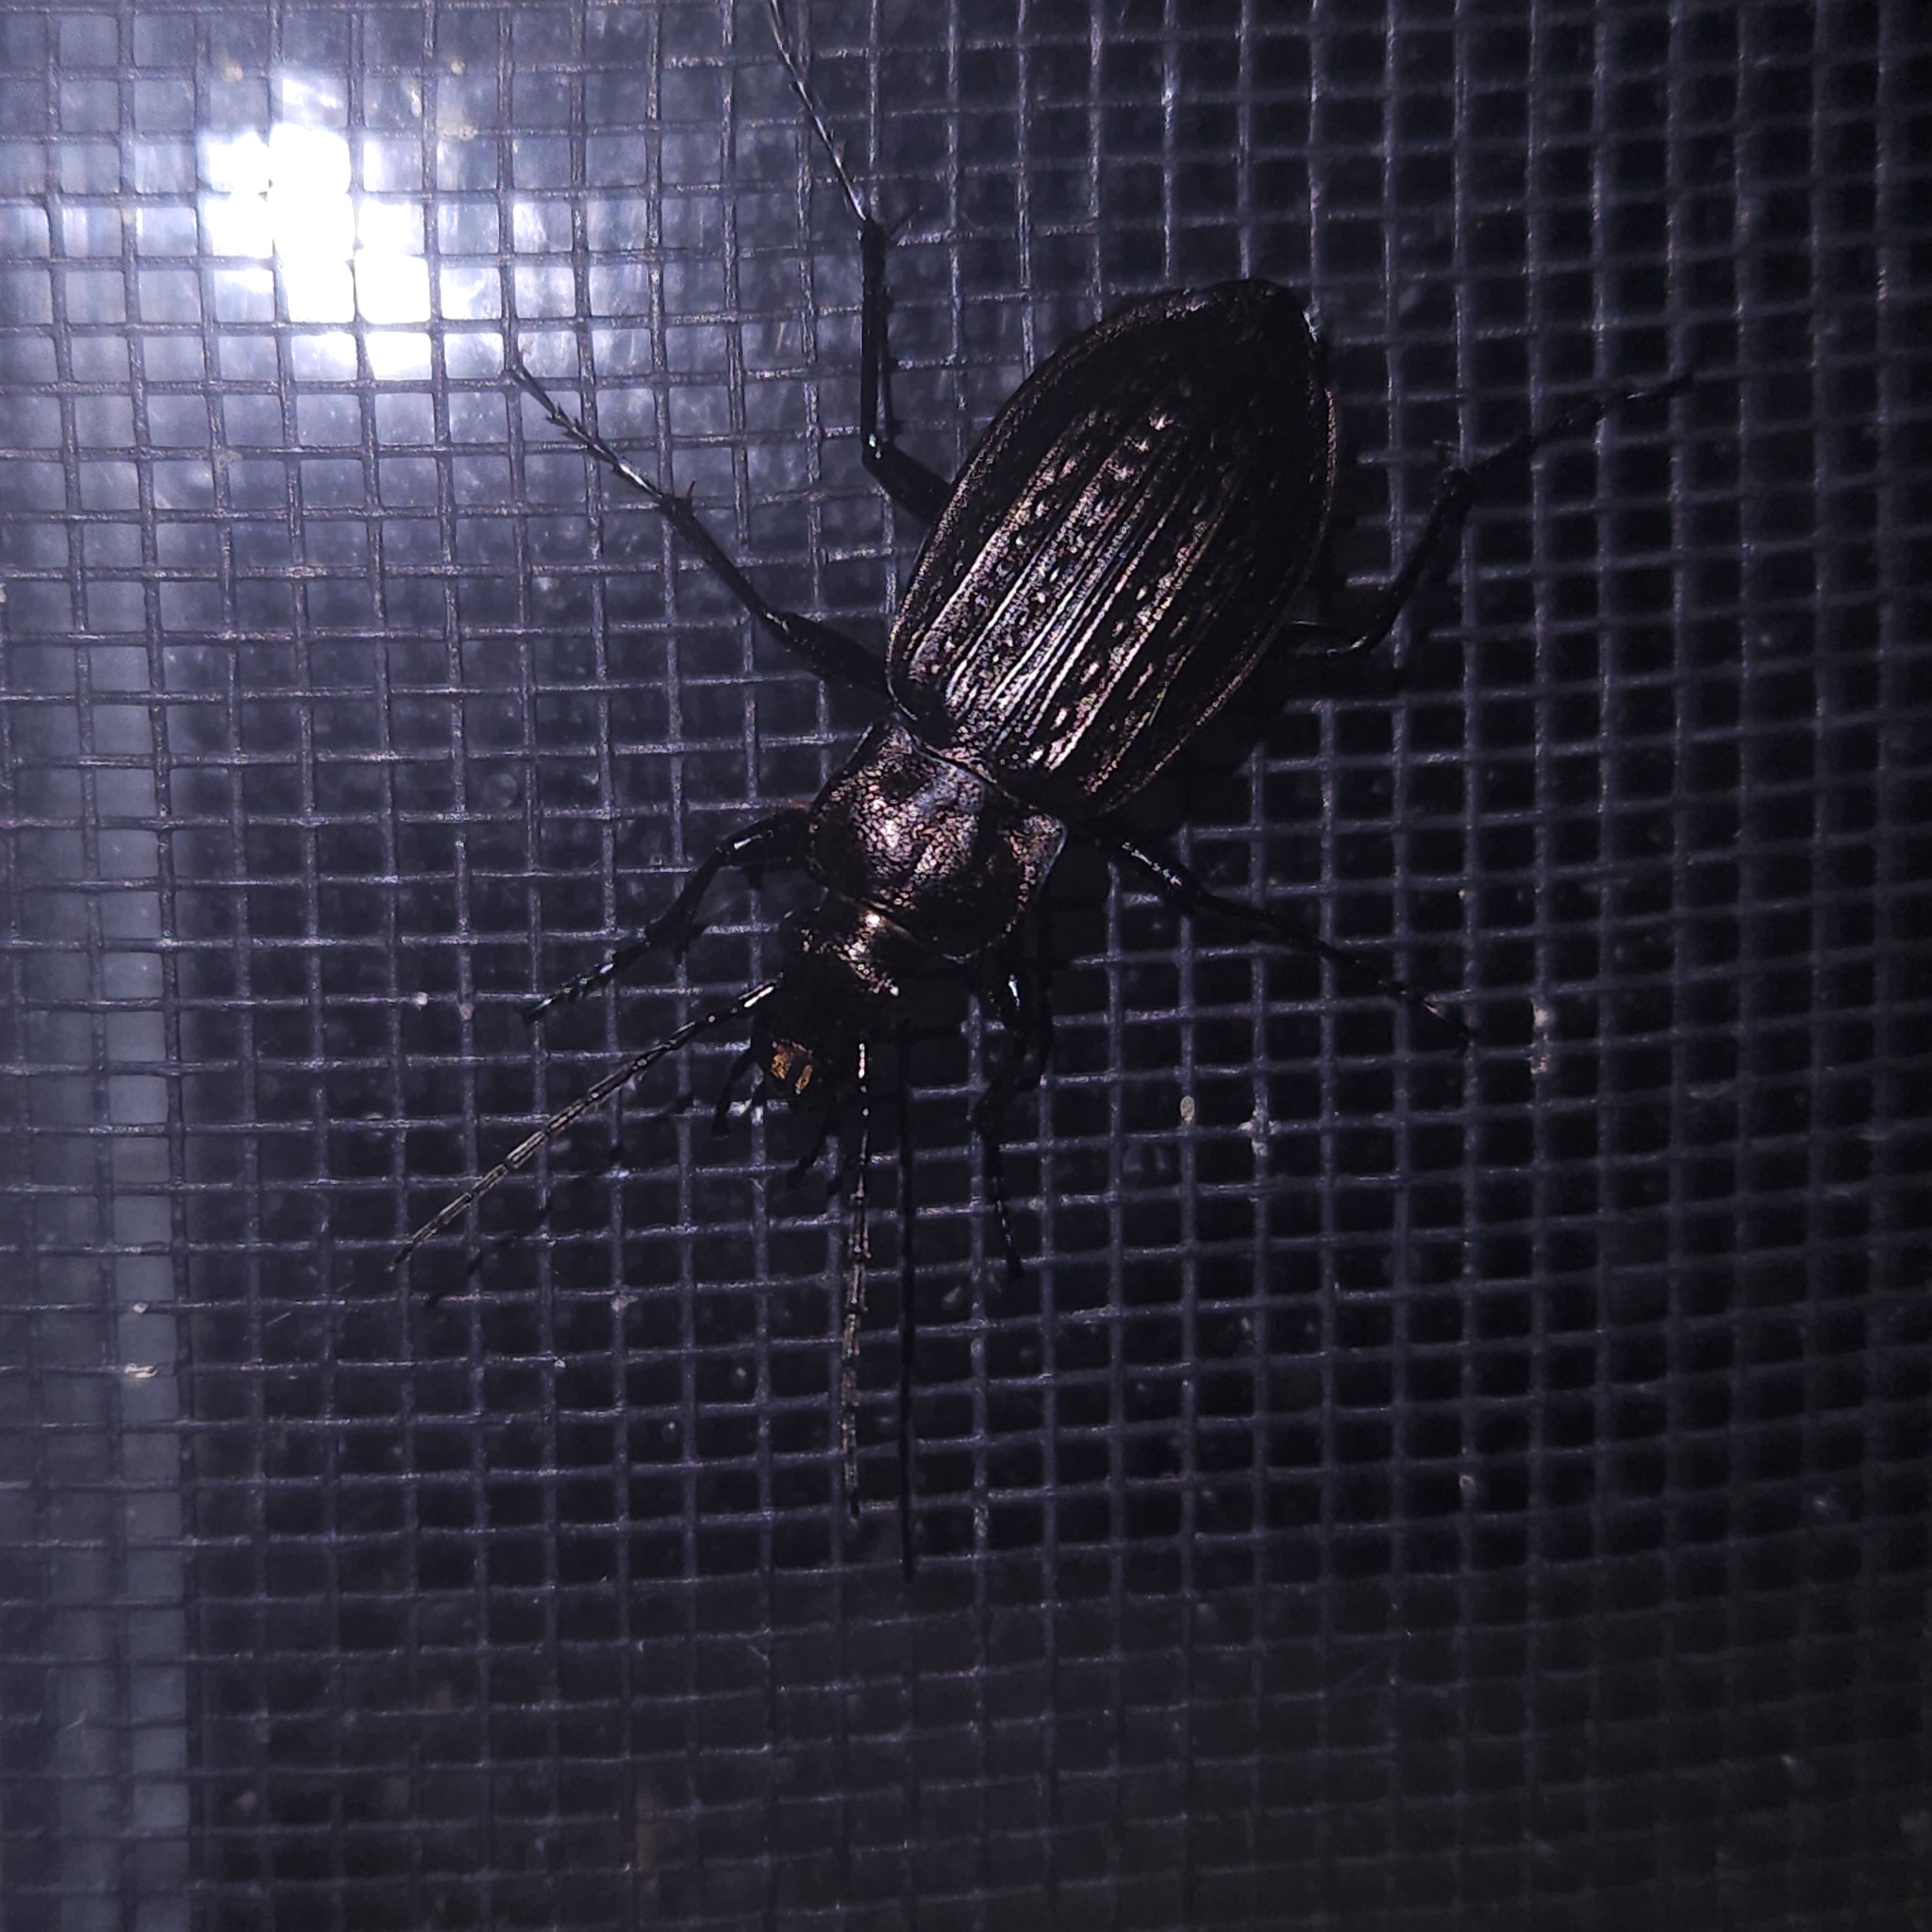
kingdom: Animalia
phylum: Arthropoda
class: Insecta
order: Coleoptera
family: Carabidae
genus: Carabus
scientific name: Carabus granulatus
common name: Granulate ground beetle
